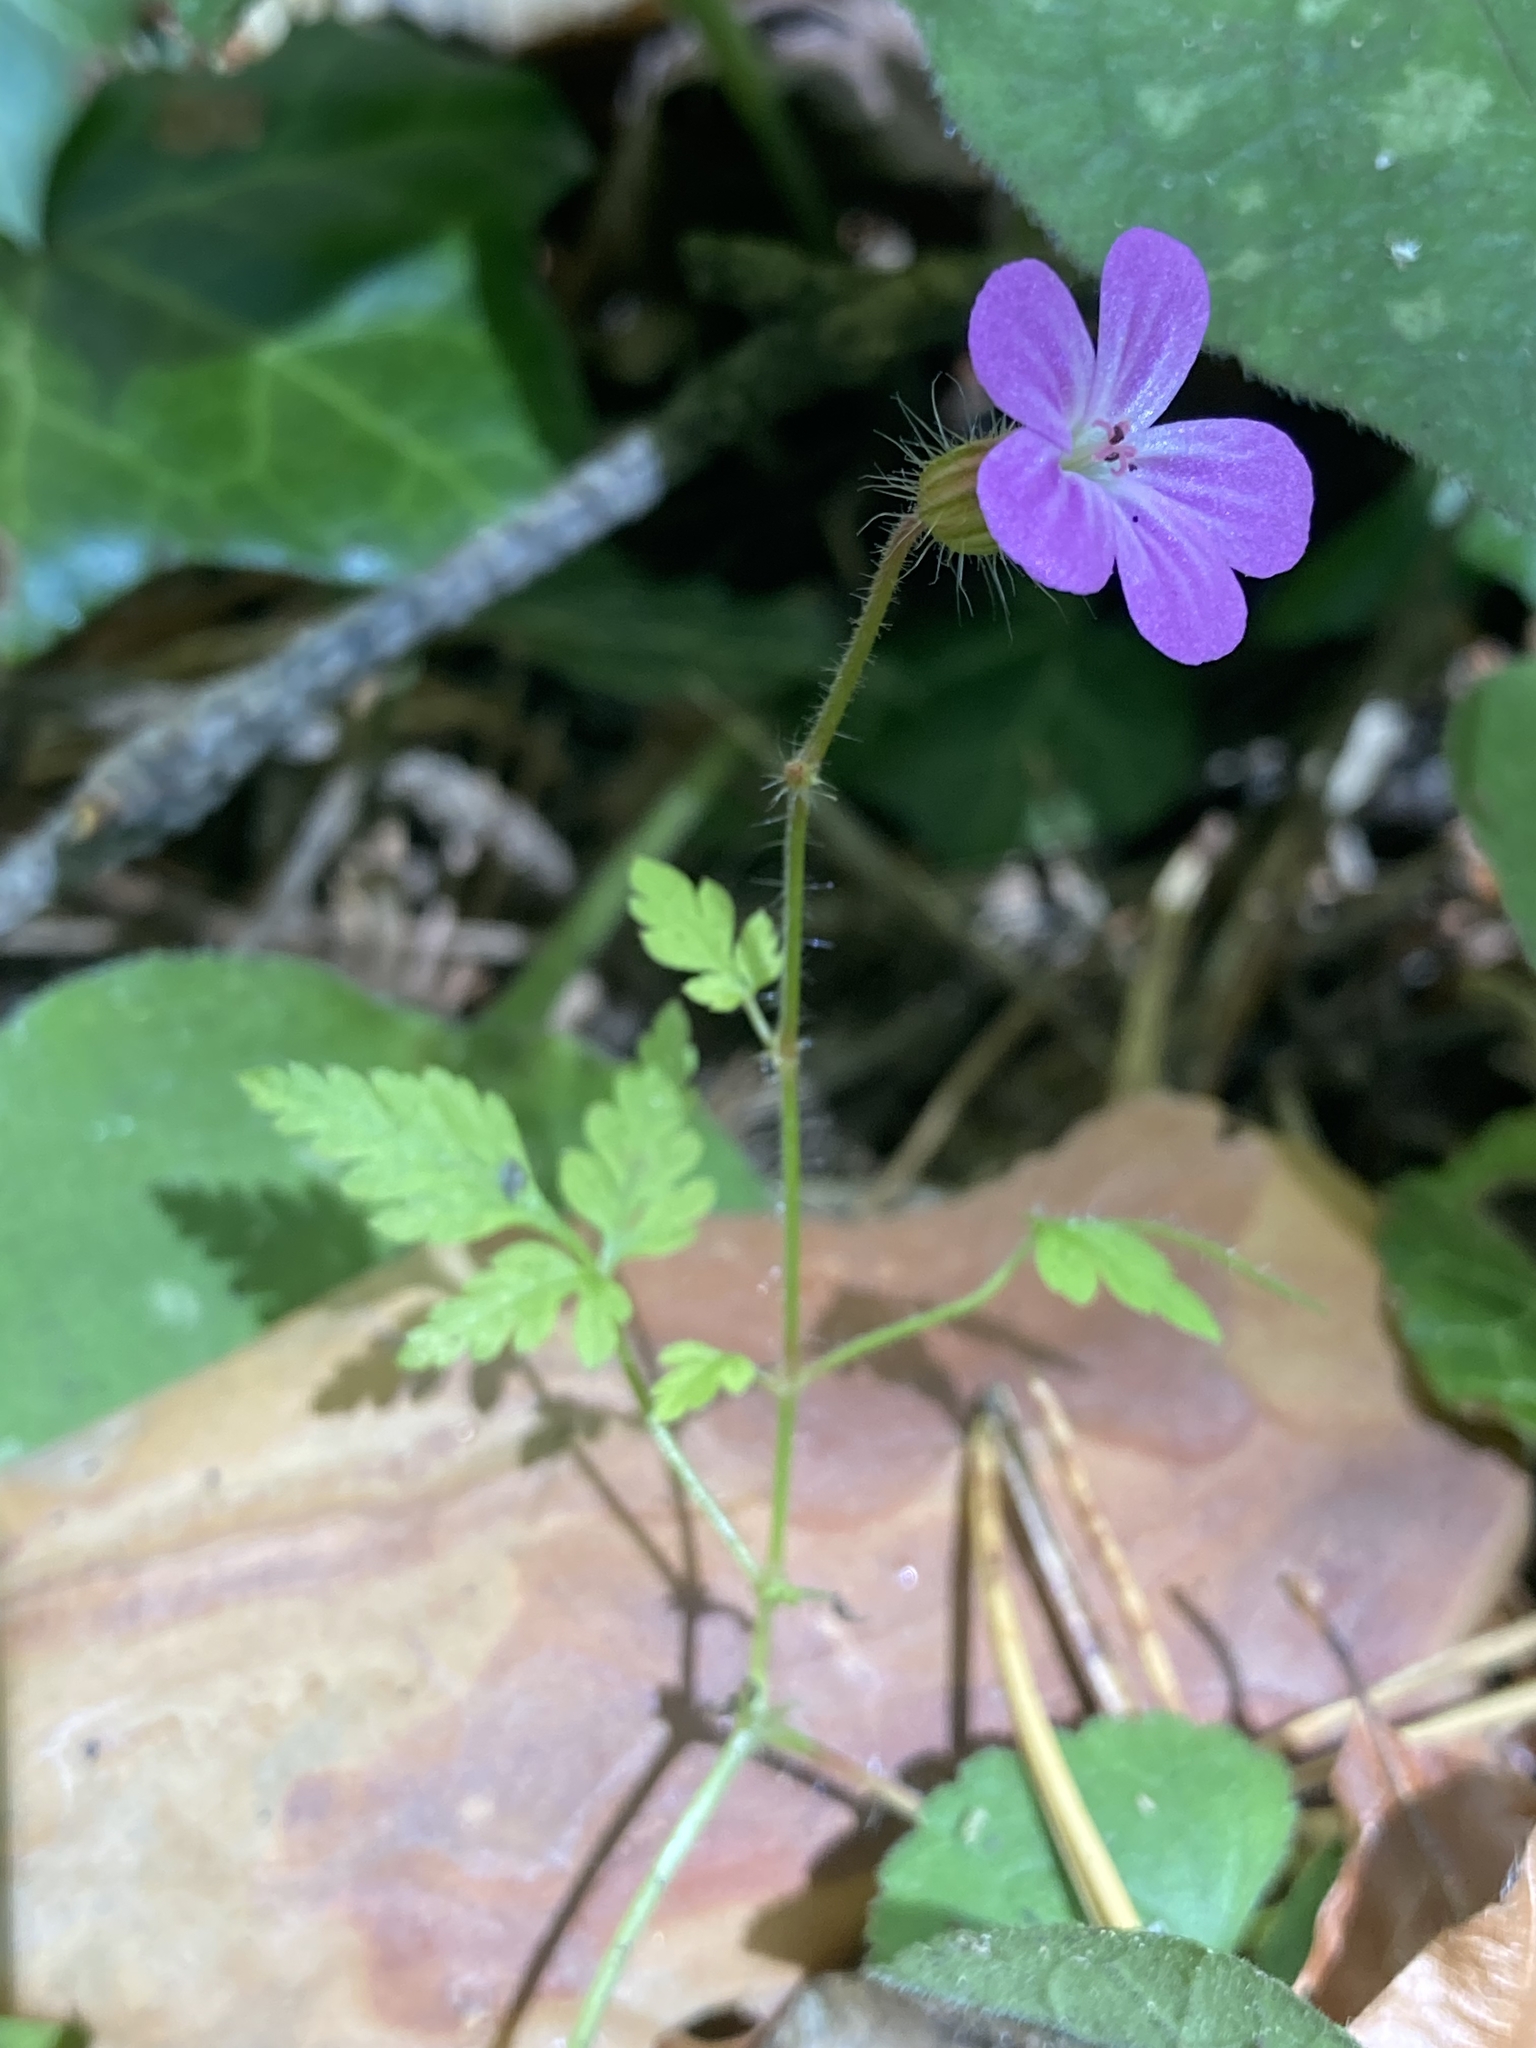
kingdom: Plantae
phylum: Tracheophyta
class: Magnoliopsida
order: Geraniales
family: Geraniaceae
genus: Geranium
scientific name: Geranium robertianum
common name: Herb-robert
